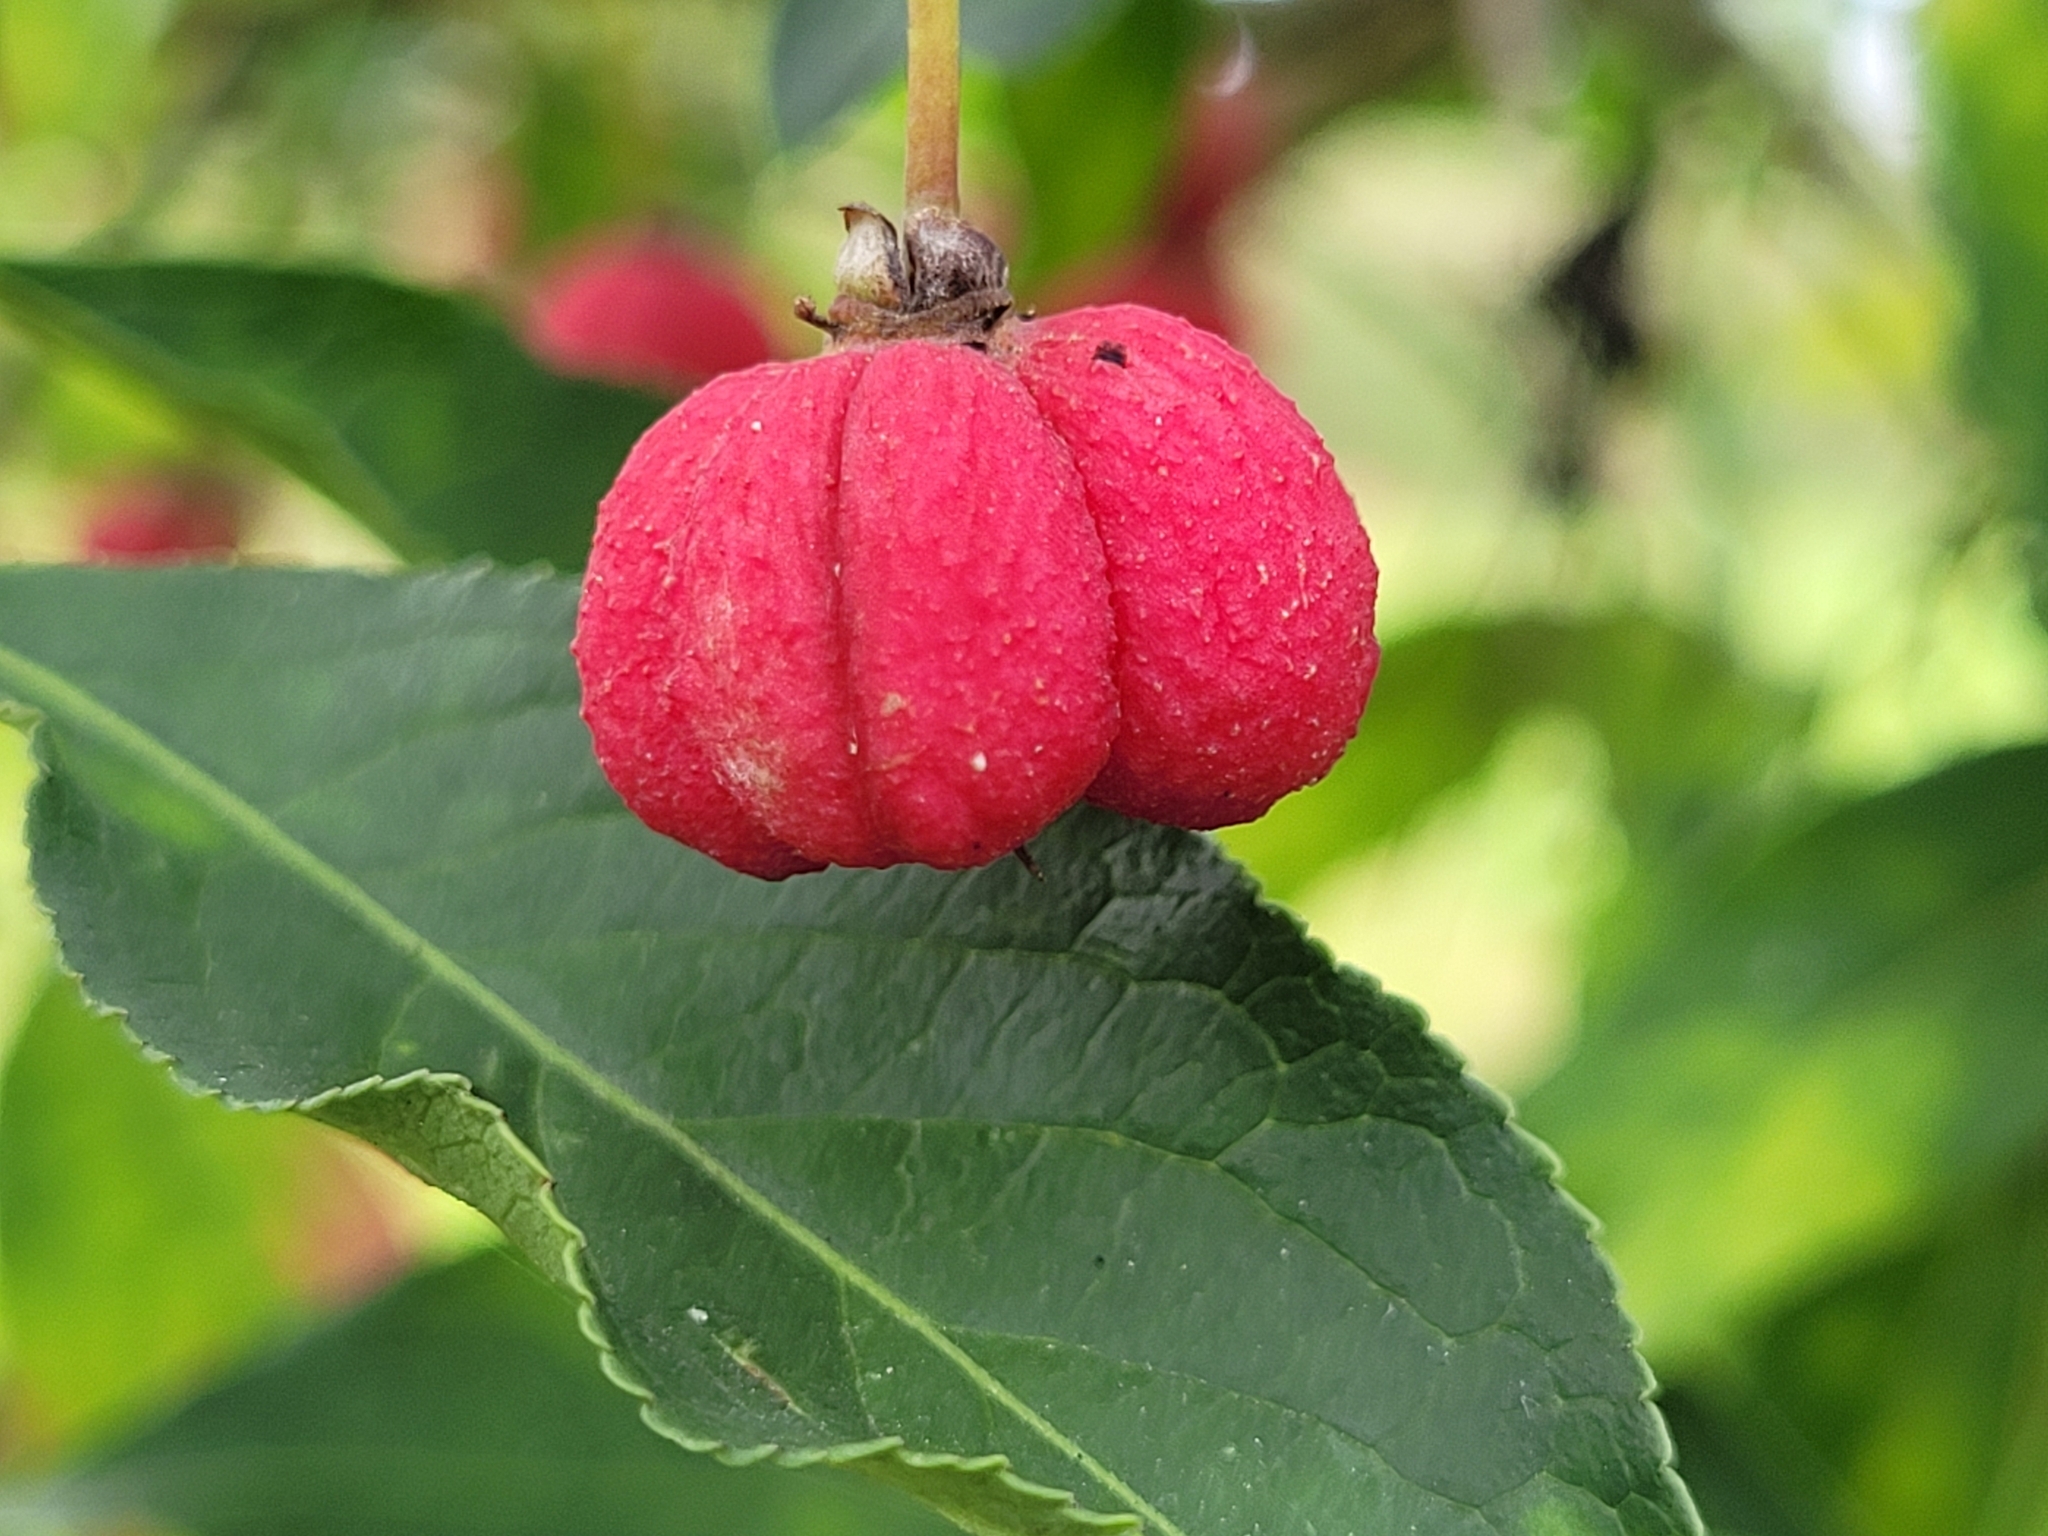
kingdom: Plantae
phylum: Tracheophyta
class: Magnoliopsida
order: Celastrales
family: Celastraceae
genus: Euonymus
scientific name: Euonymus europaeus
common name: Spindle
